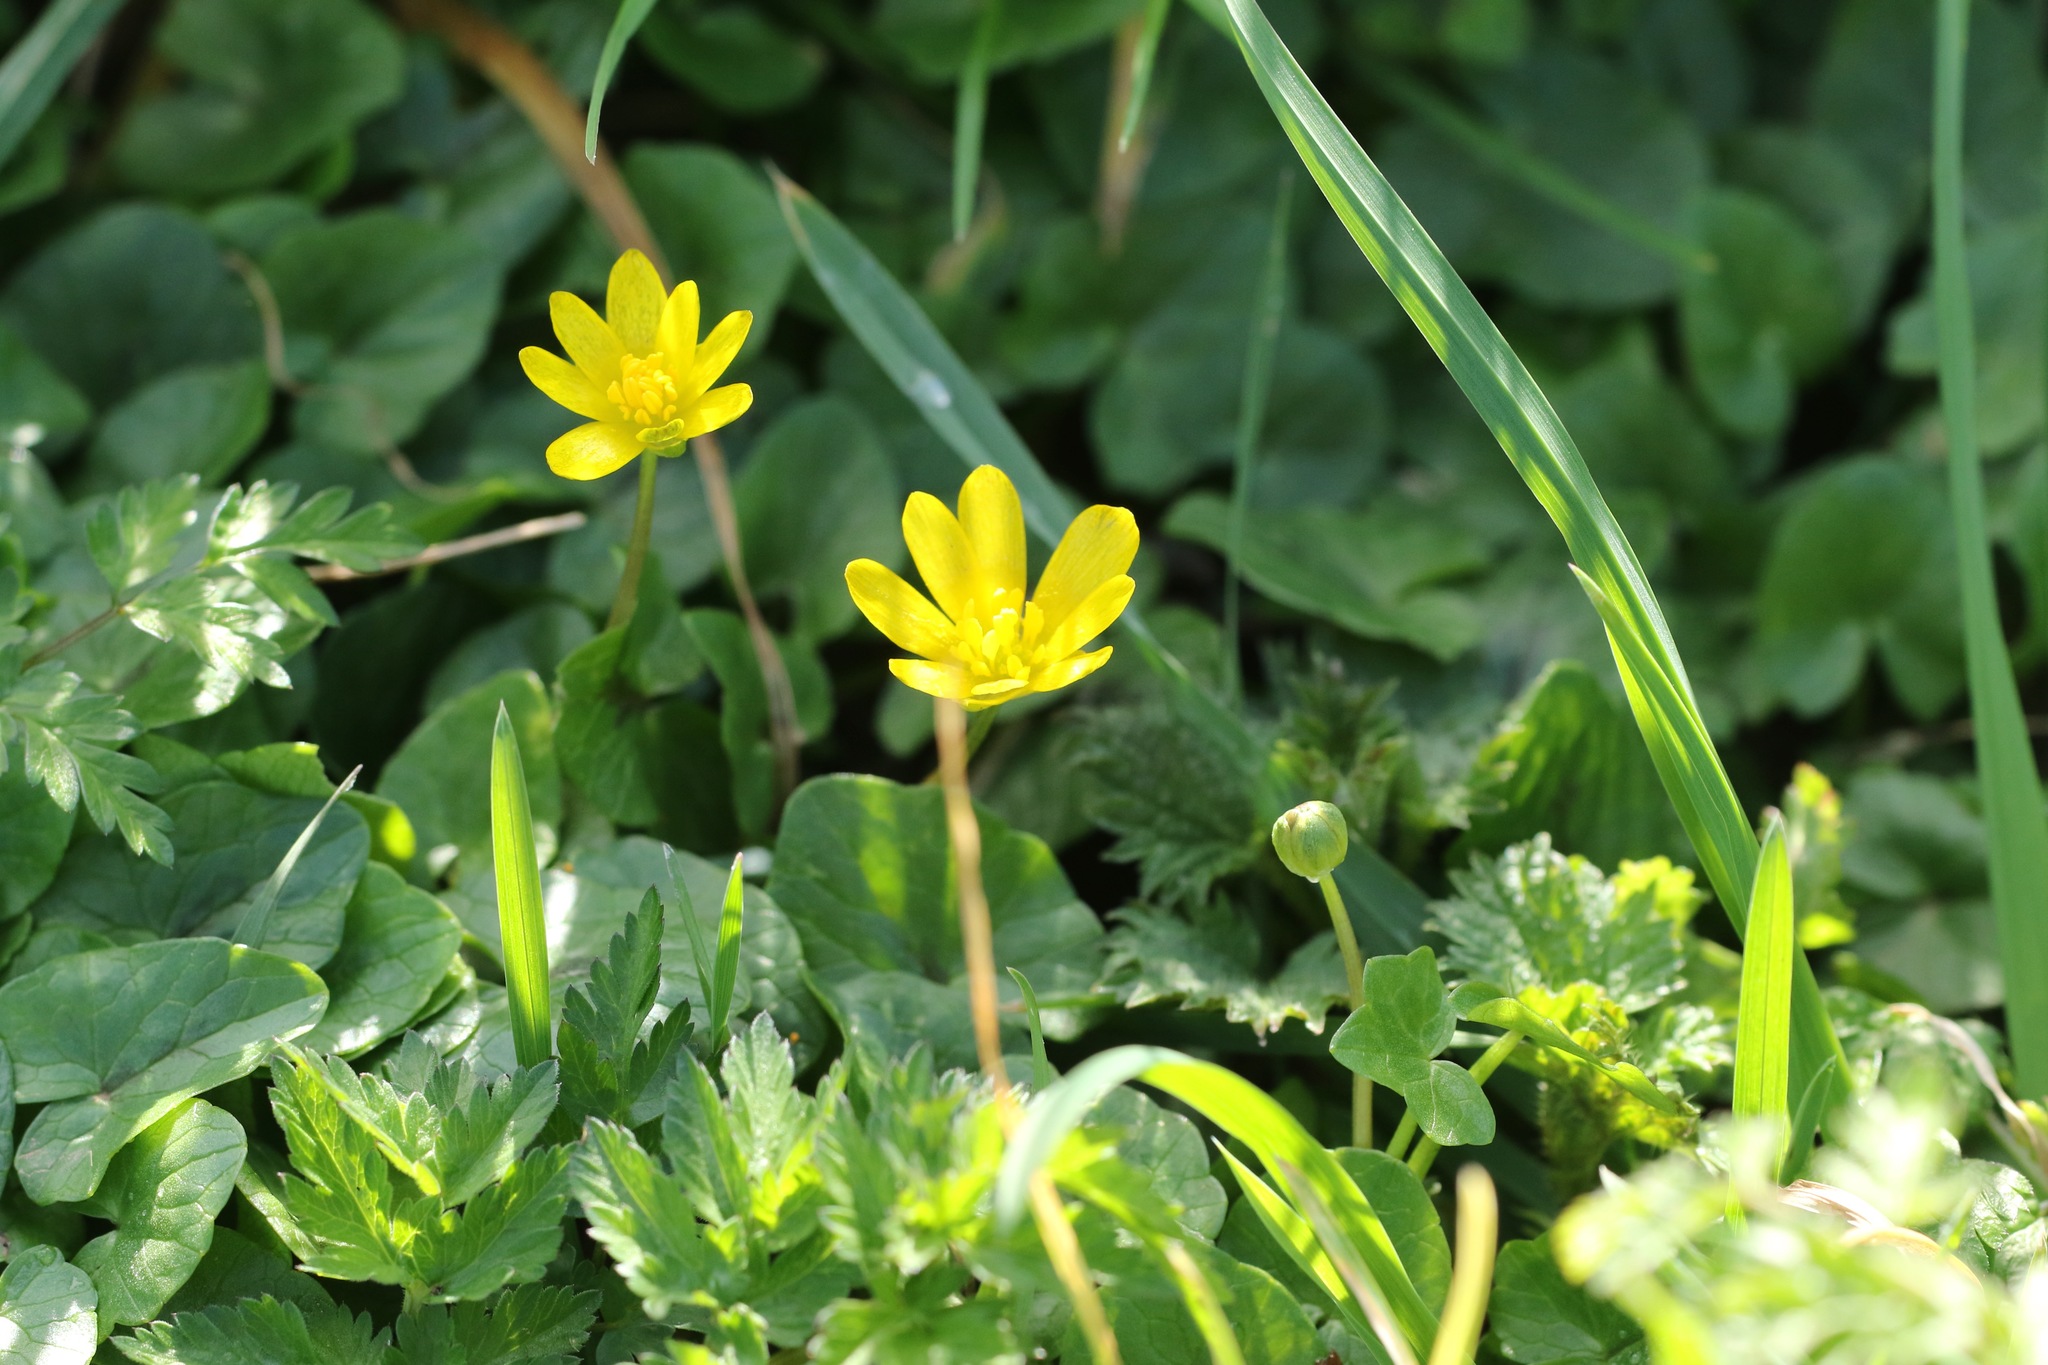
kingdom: Plantae
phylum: Tracheophyta
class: Magnoliopsida
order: Ranunculales
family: Ranunculaceae
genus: Ficaria
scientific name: Ficaria verna
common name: Lesser celandine
